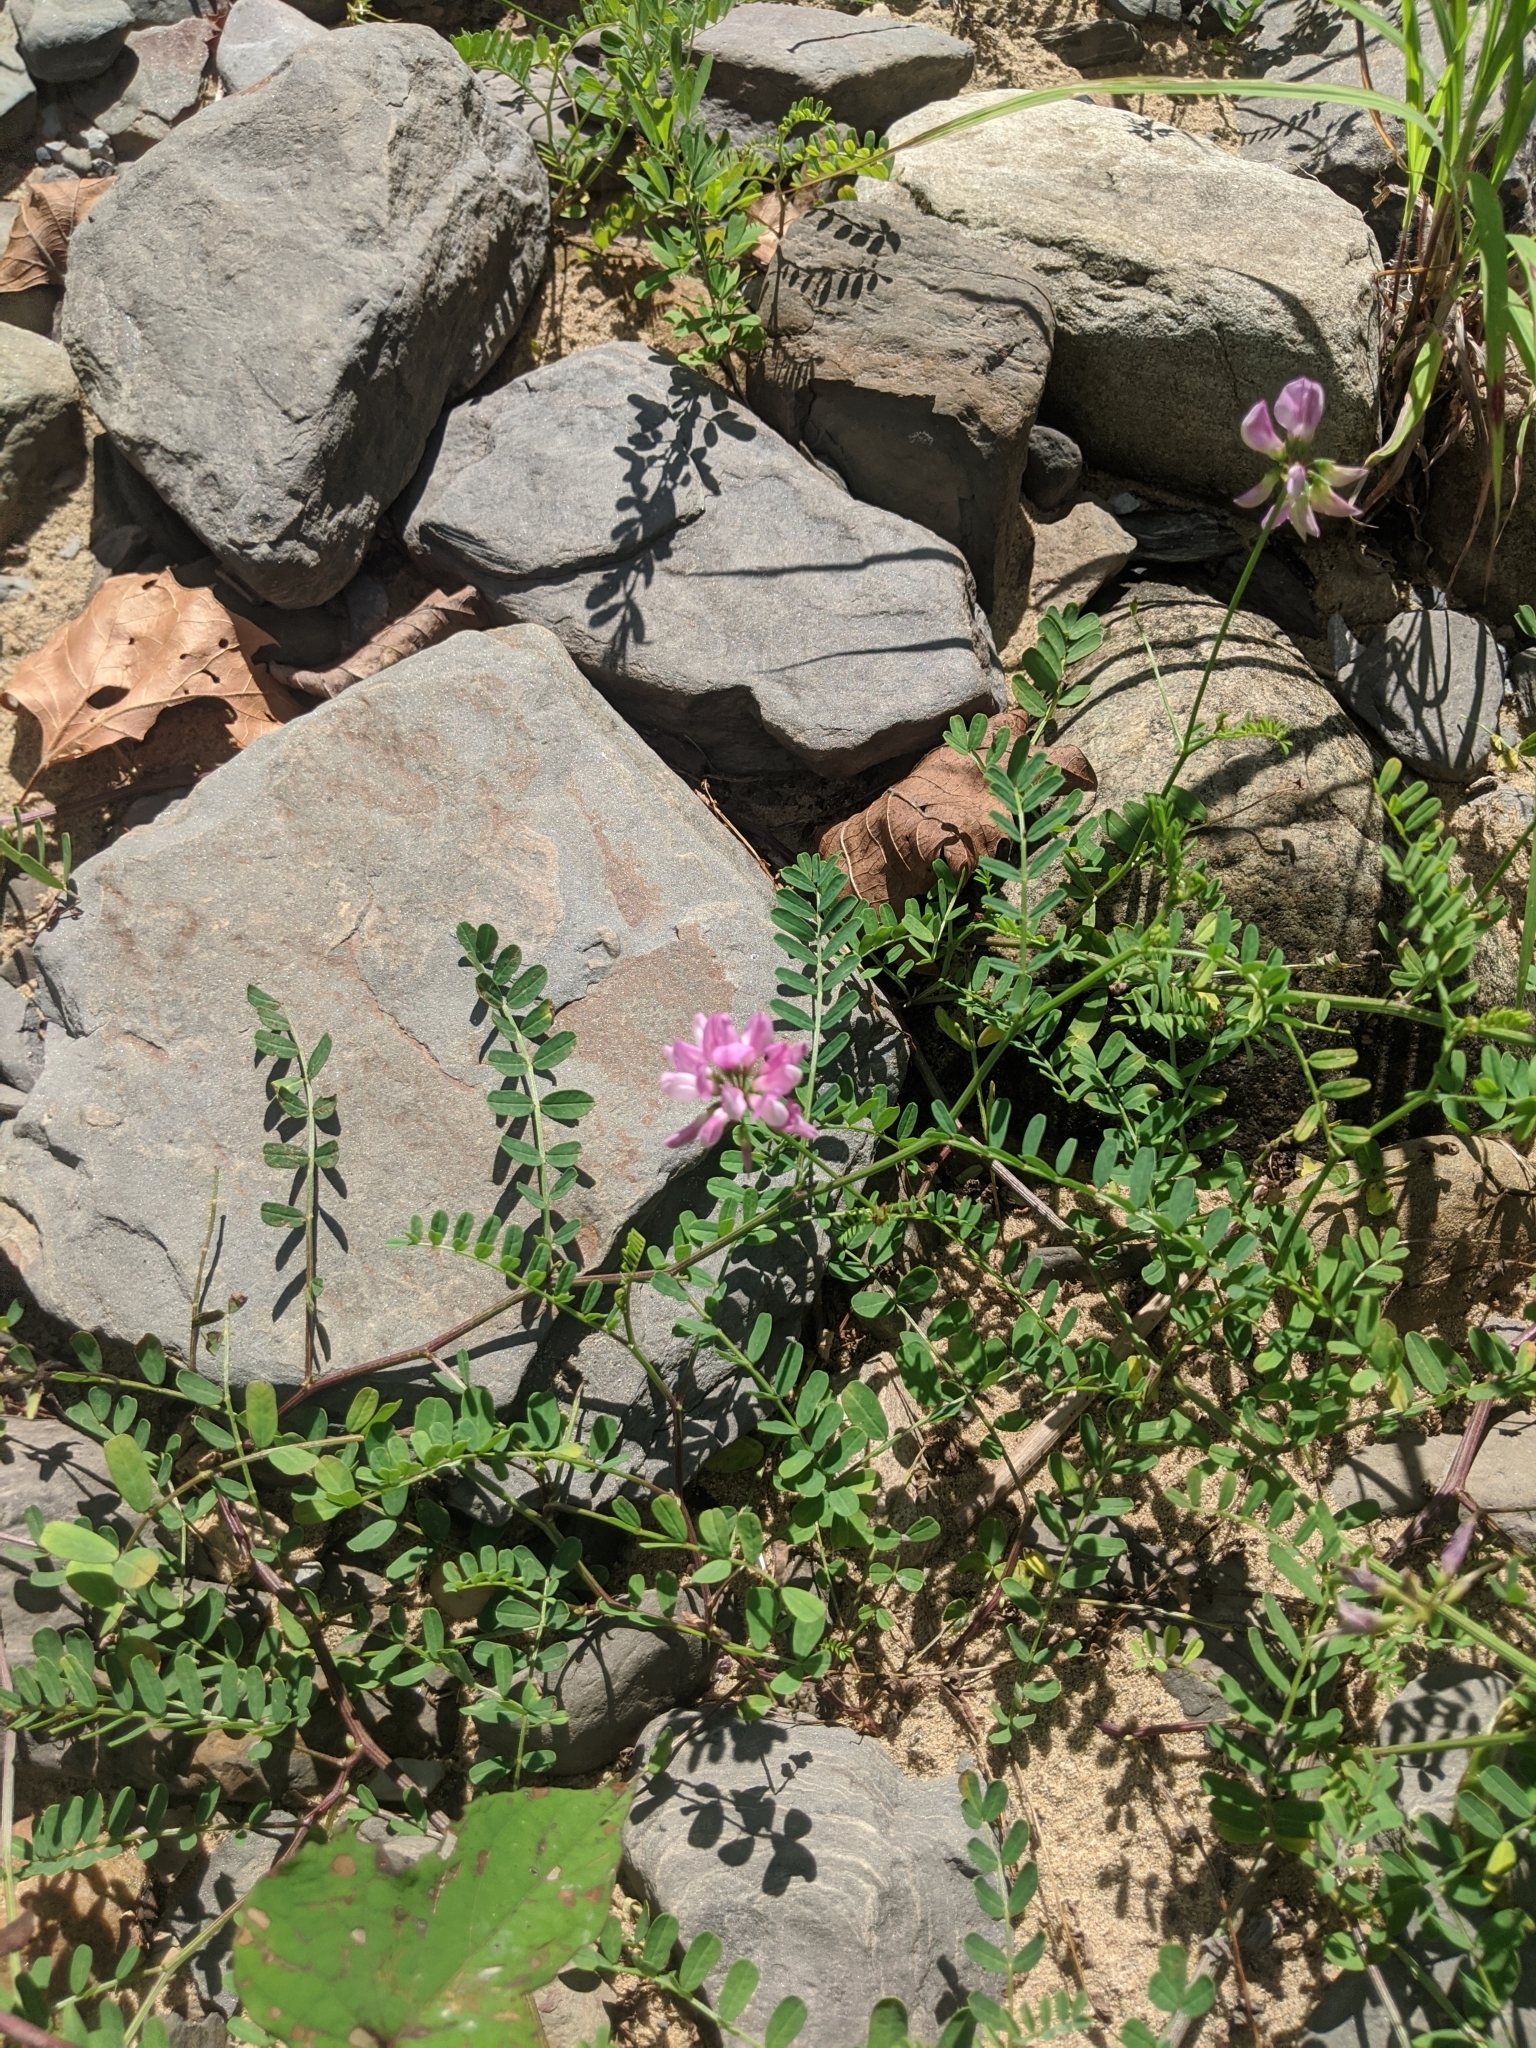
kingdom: Plantae
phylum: Tracheophyta
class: Magnoliopsida
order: Fabales
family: Fabaceae
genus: Coronilla
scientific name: Coronilla varia
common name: Crownvetch
